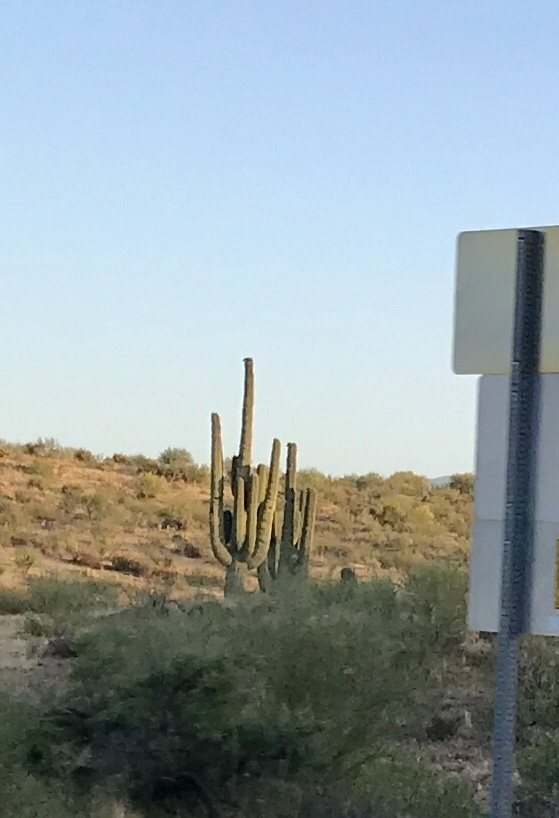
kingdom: Plantae
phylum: Tracheophyta
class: Magnoliopsida
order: Caryophyllales
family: Cactaceae
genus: Carnegiea
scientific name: Carnegiea gigantea
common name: Saguaro
